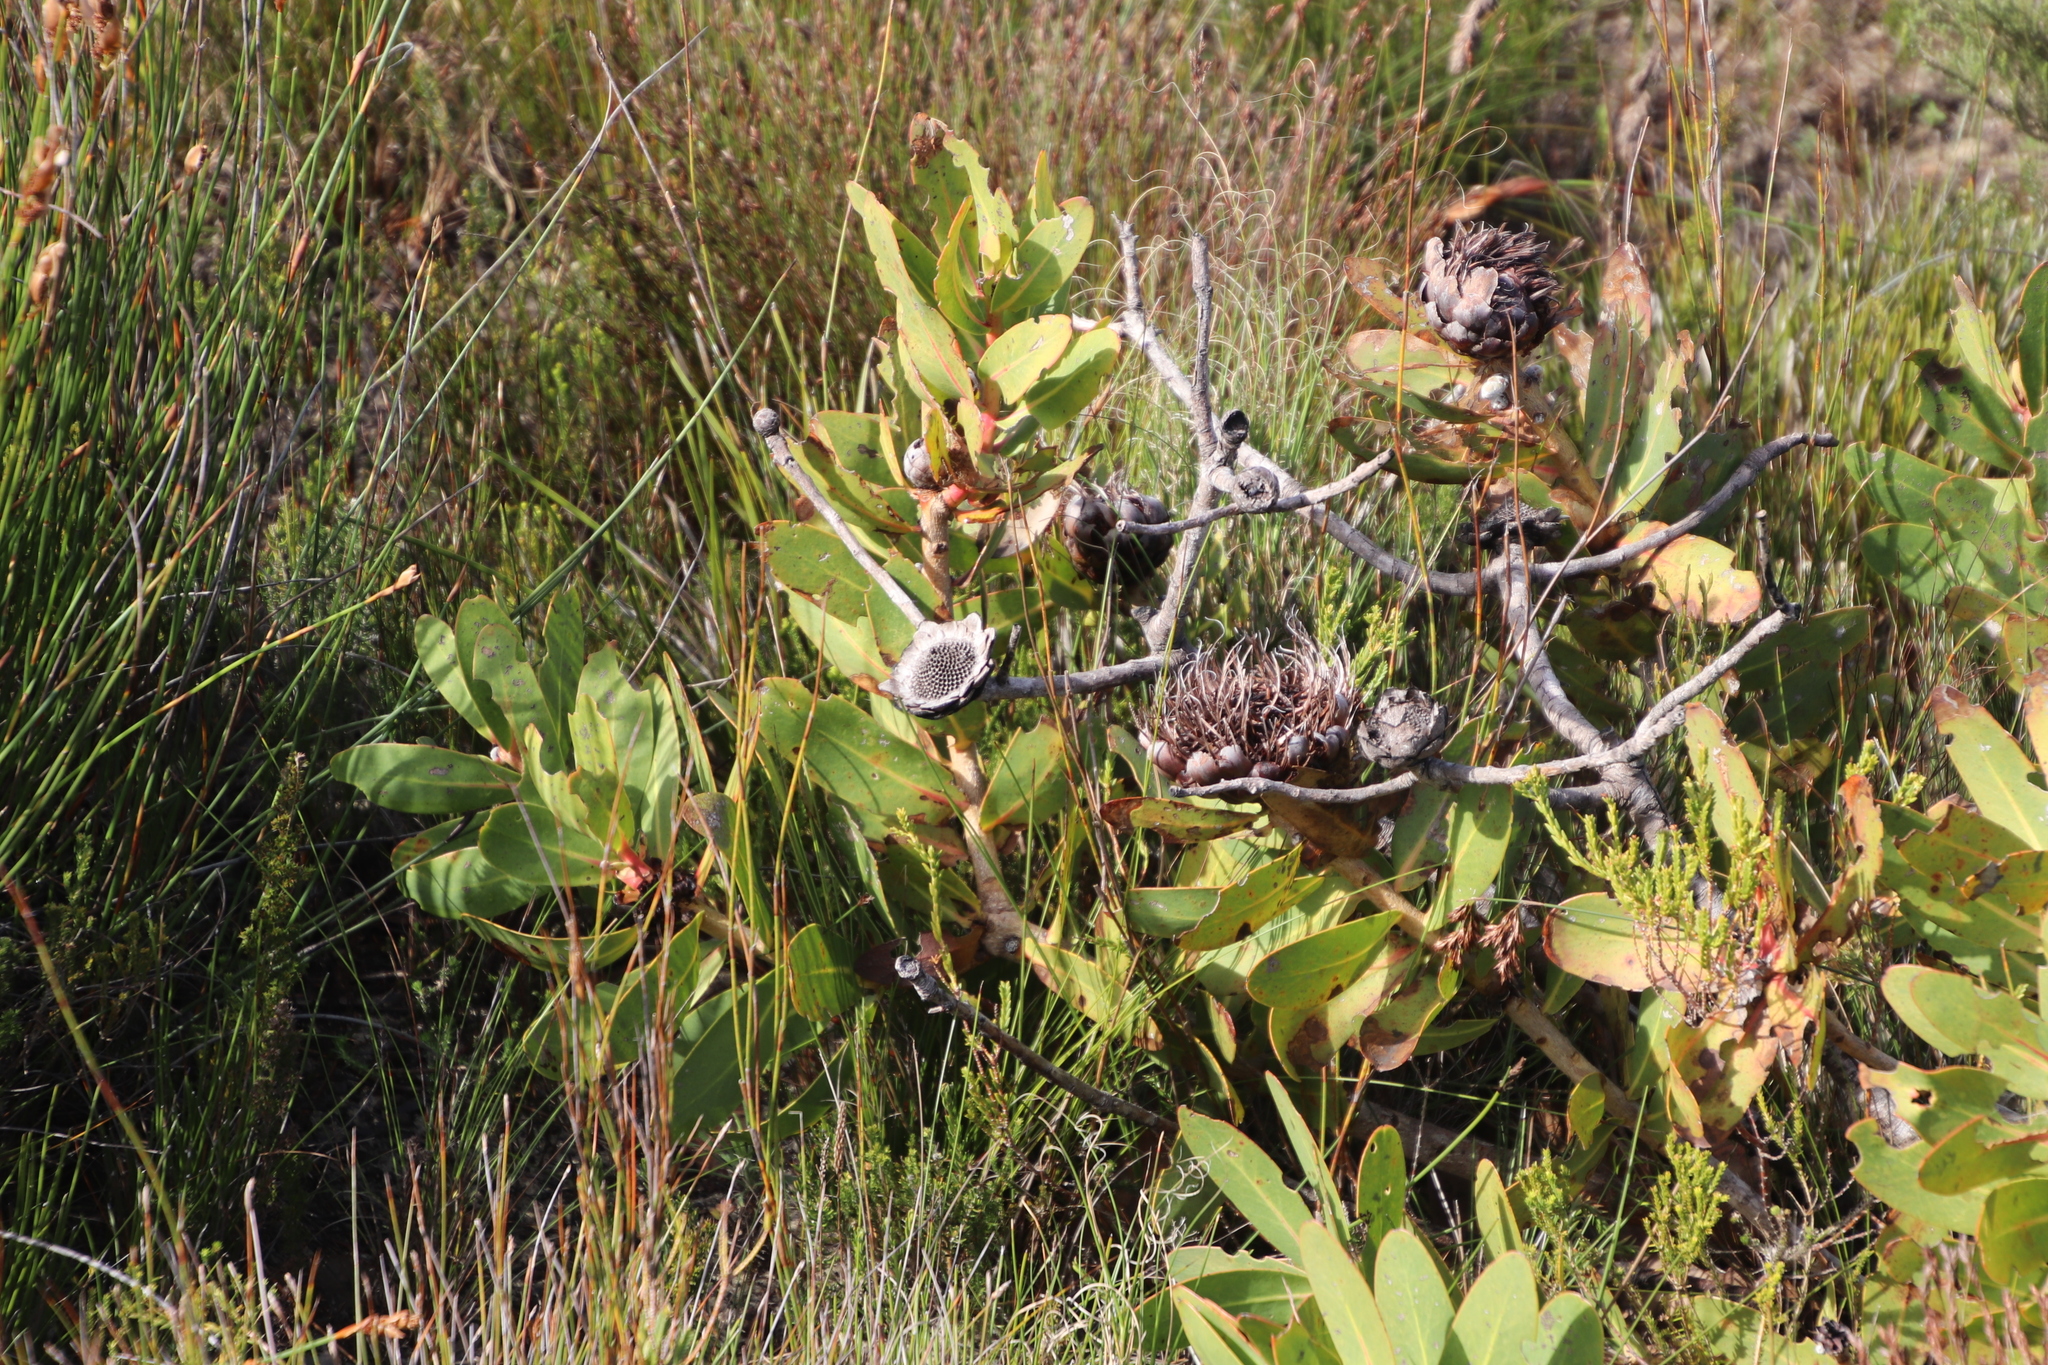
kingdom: Plantae
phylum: Tracheophyta
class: Magnoliopsida
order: Proteales
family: Proteaceae
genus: Protea
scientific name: Protea nitida
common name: Tree protea
